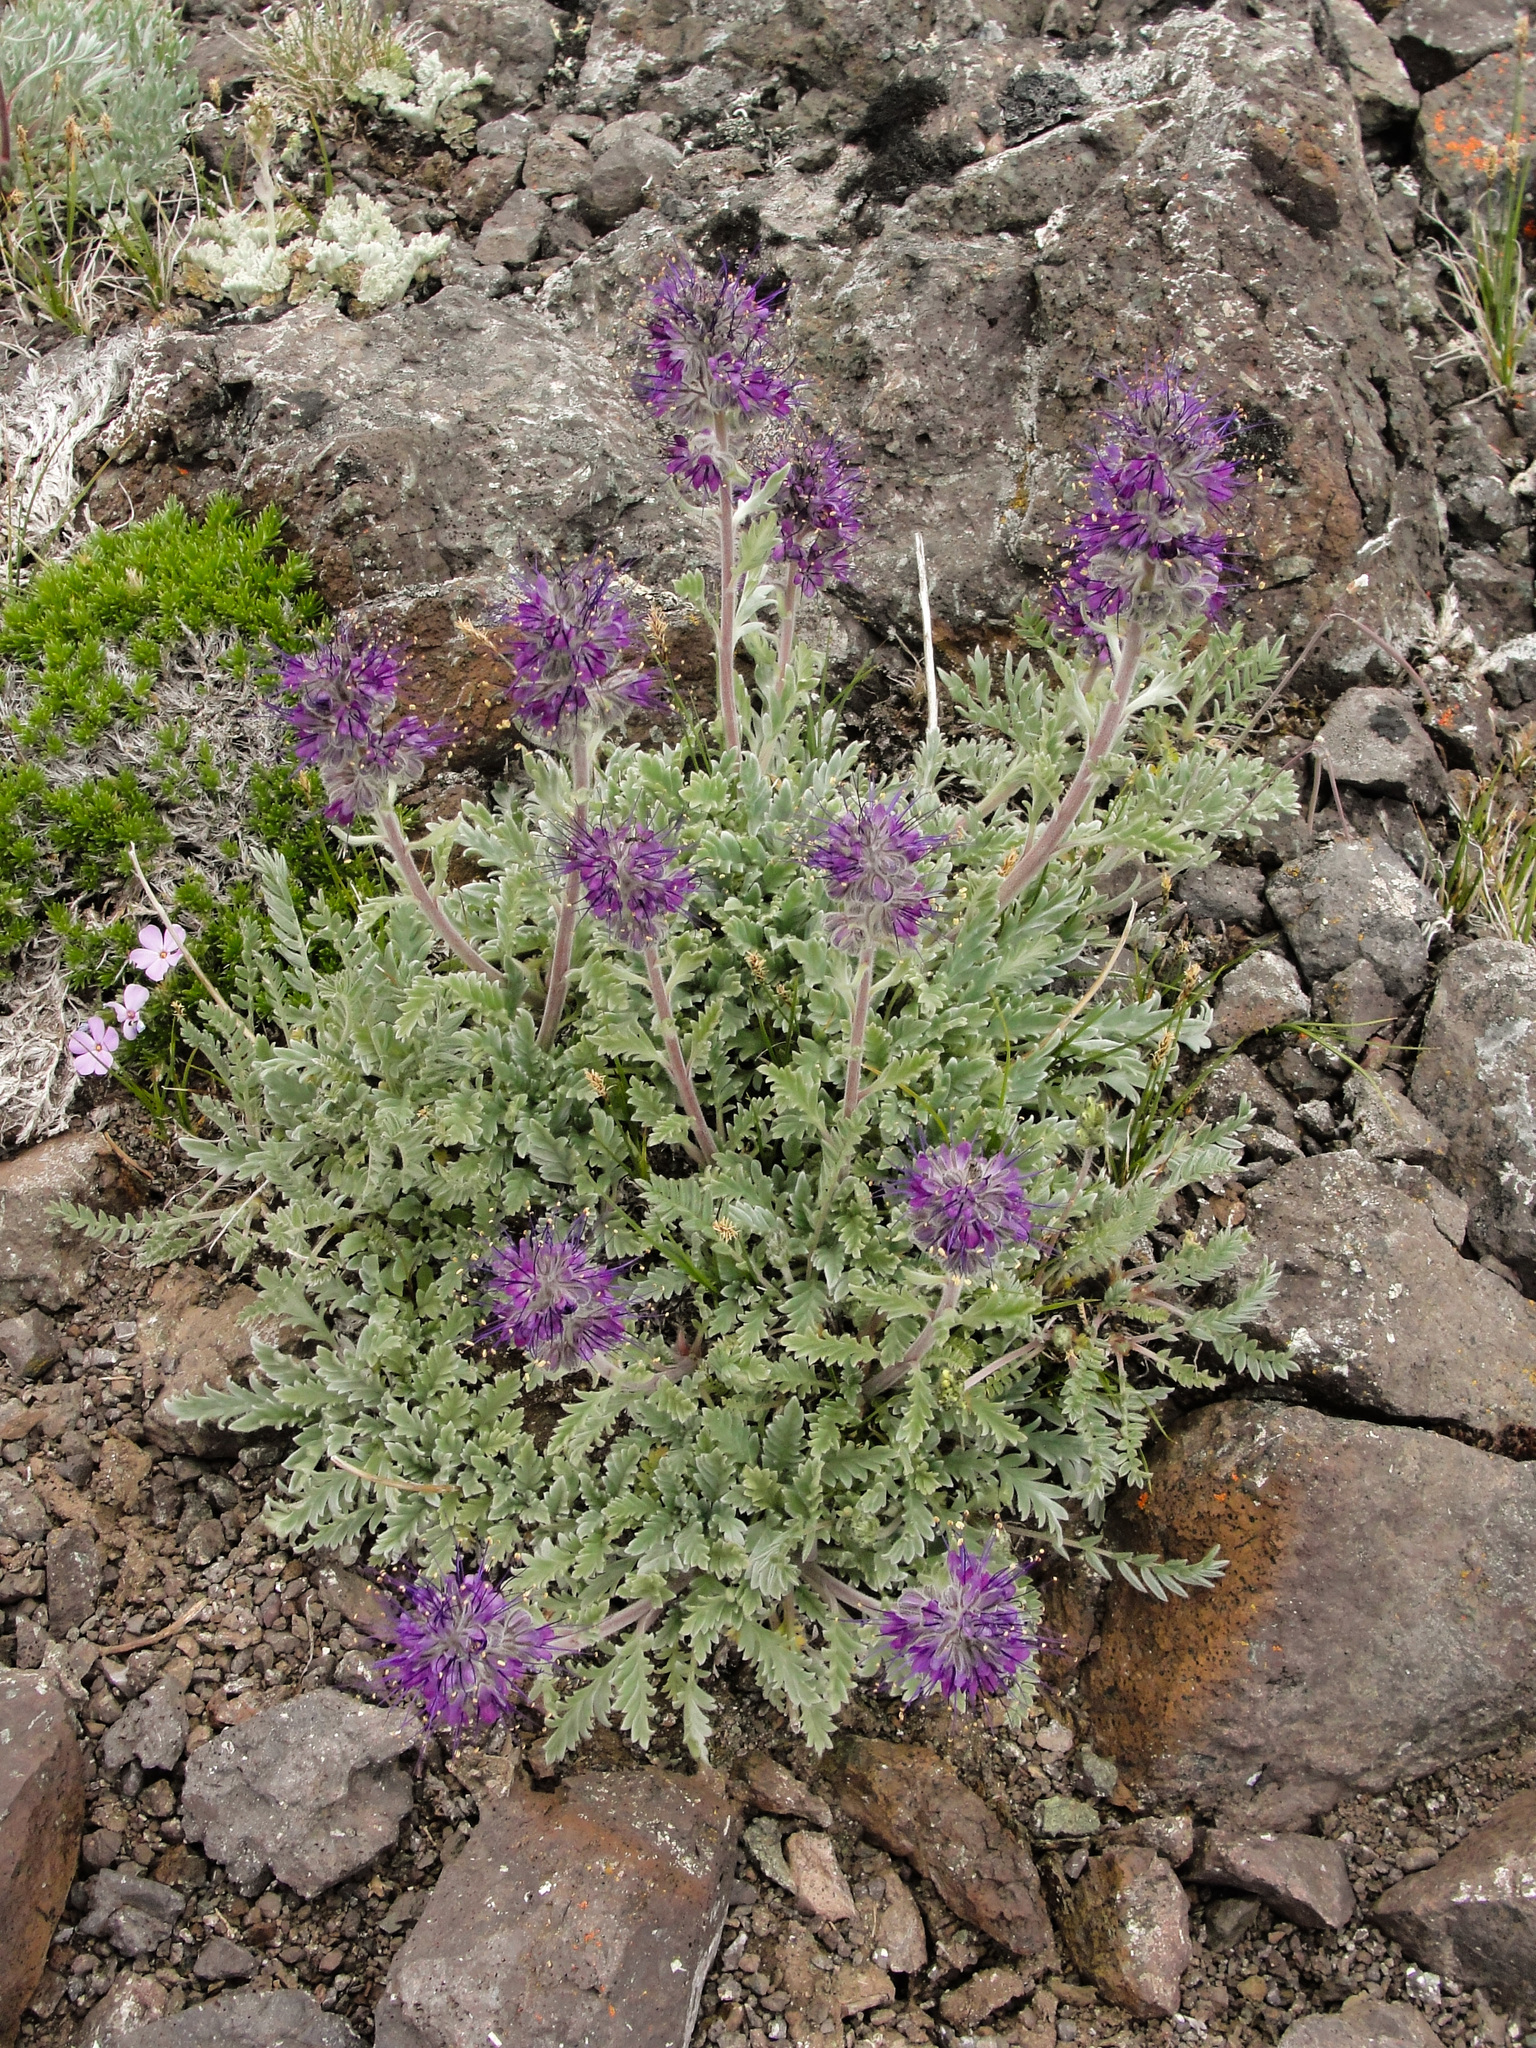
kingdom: Plantae
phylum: Tracheophyta
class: Magnoliopsida
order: Boraginales
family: Hydrophyllaceae
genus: Phacelia
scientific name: Phacelia sericea
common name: Silky phacelia
